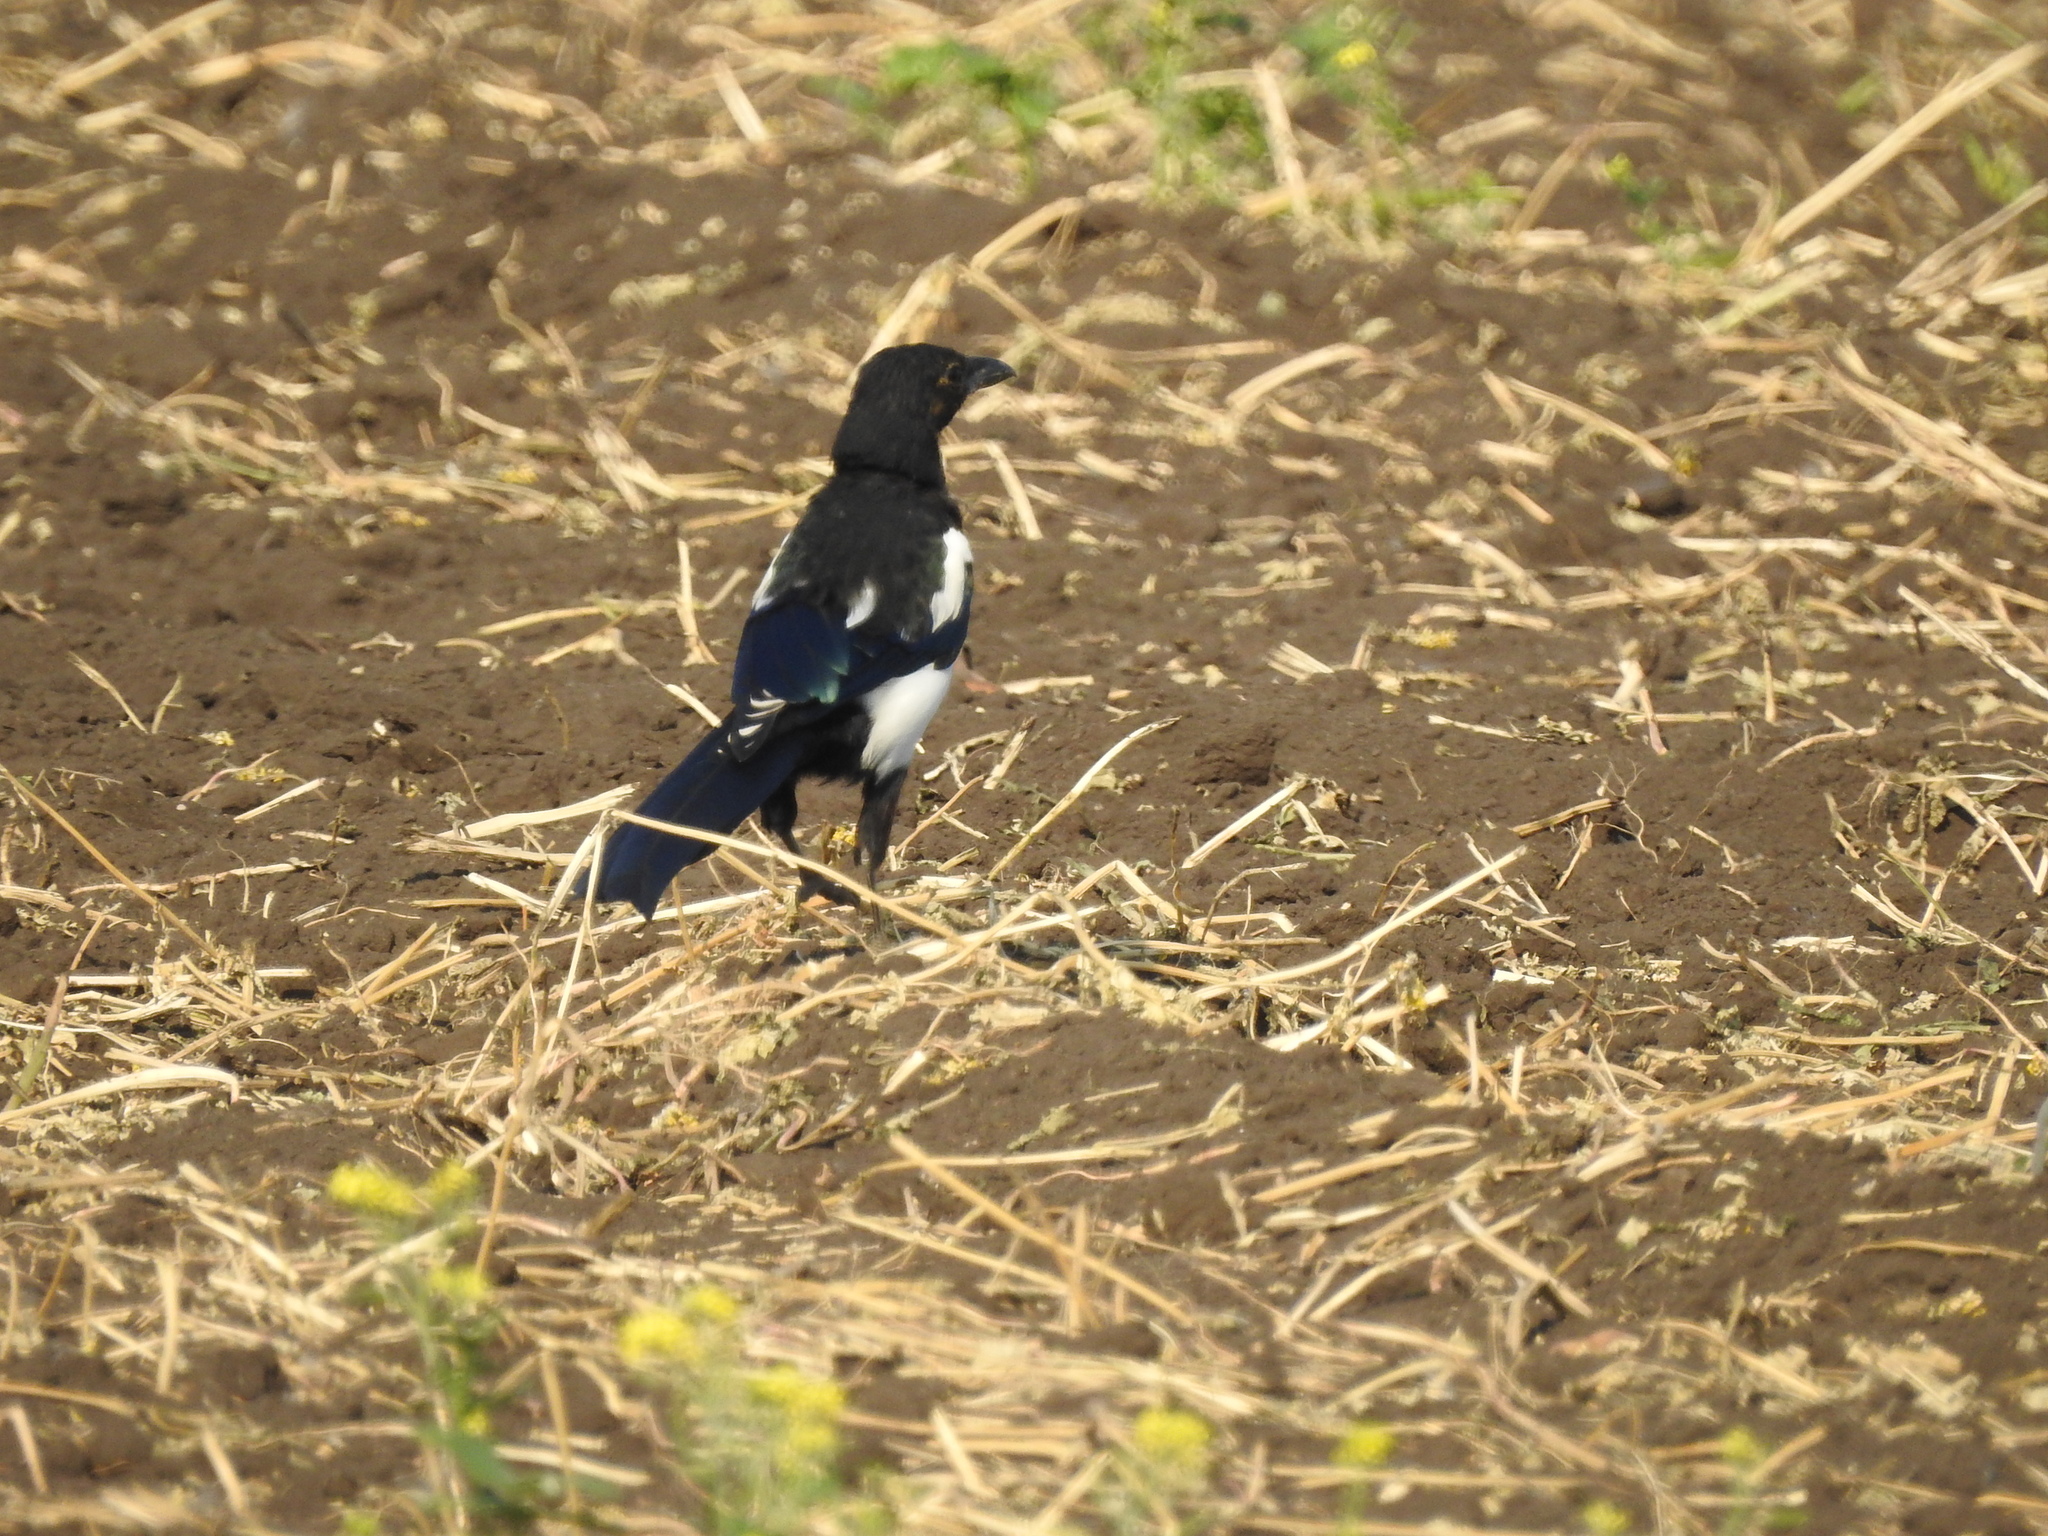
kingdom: Animalia
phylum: Chordata
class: Aves
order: Passeriformes
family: Corvidae
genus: Pica
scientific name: Pica pica
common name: Eurasian magpie
